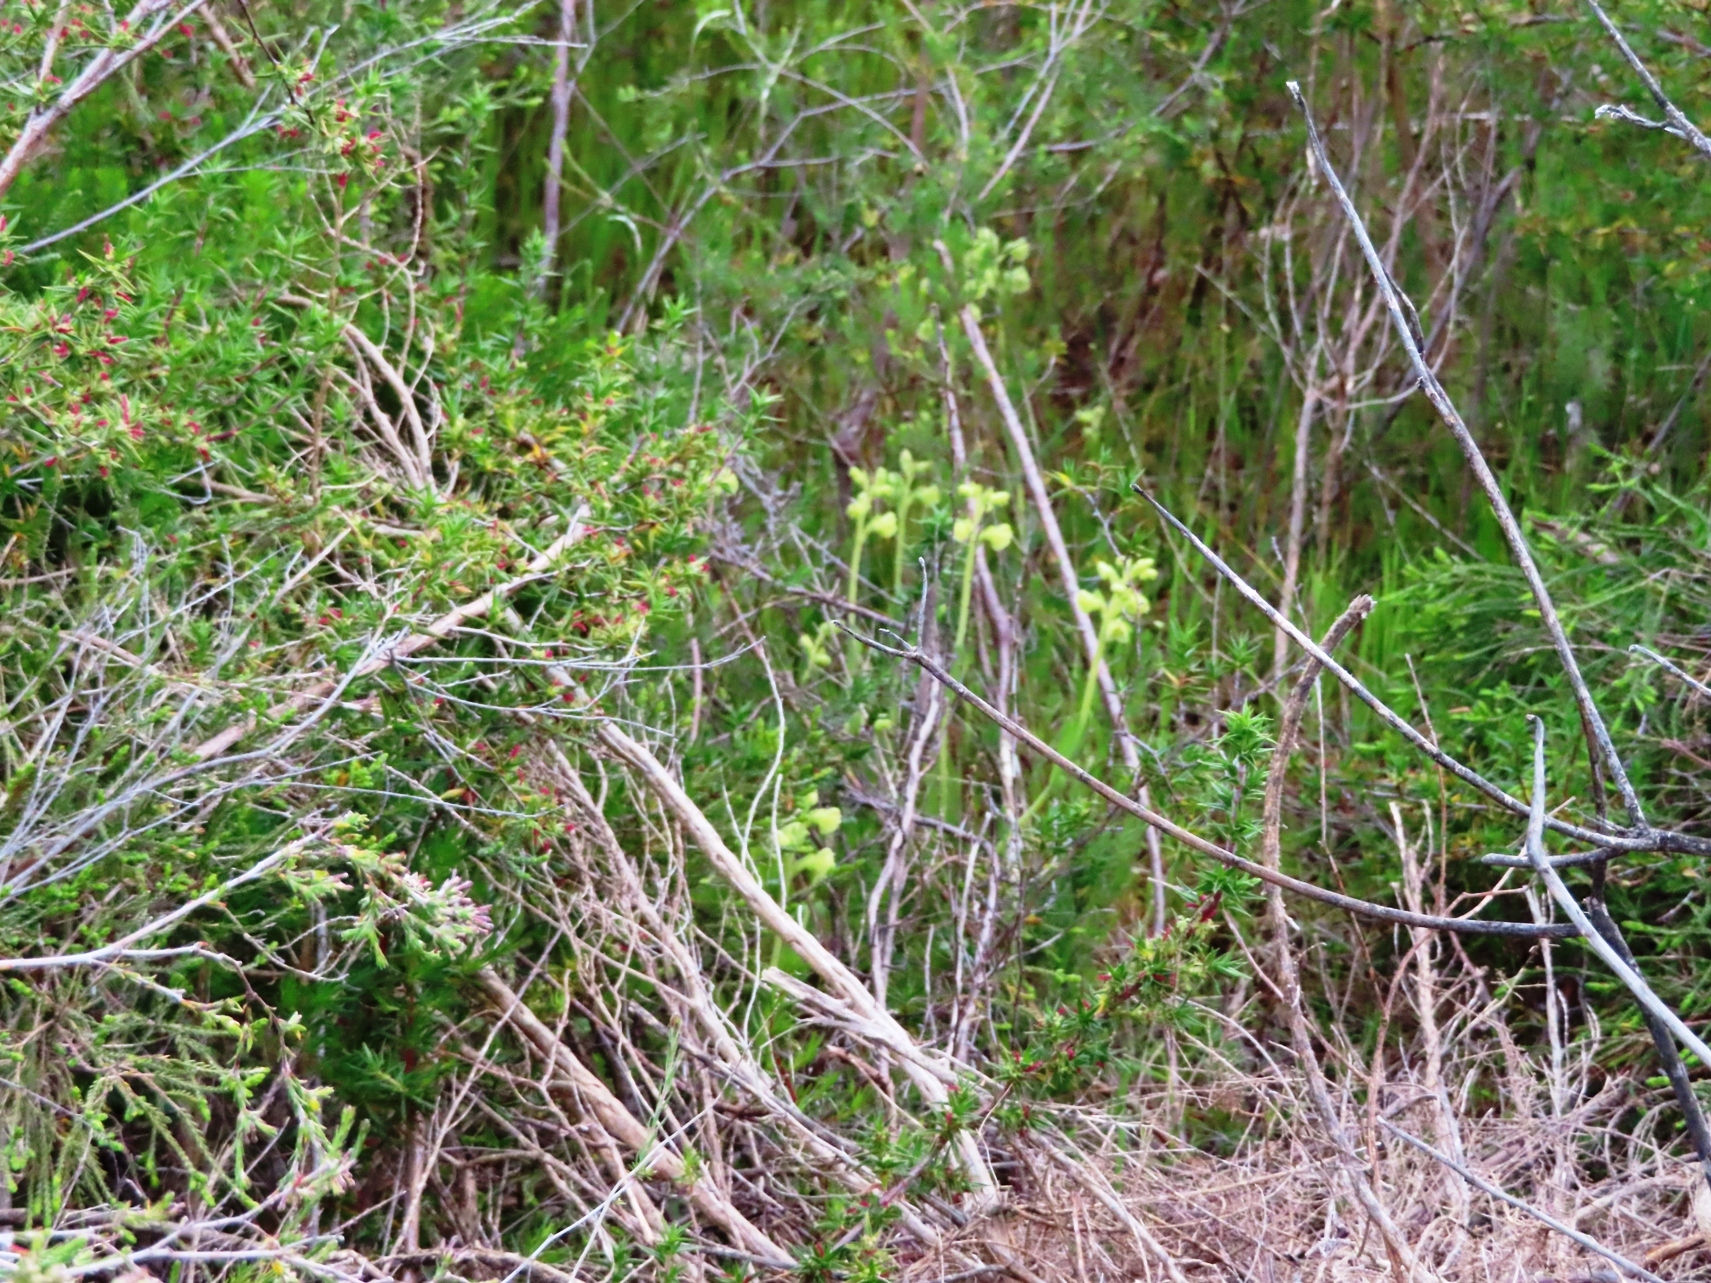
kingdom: Plantae
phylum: Tracheophyta
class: Liliopsida
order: Asparagales
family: Orchidaceae
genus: Pterygodium
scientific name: Pterygodium catholicum
